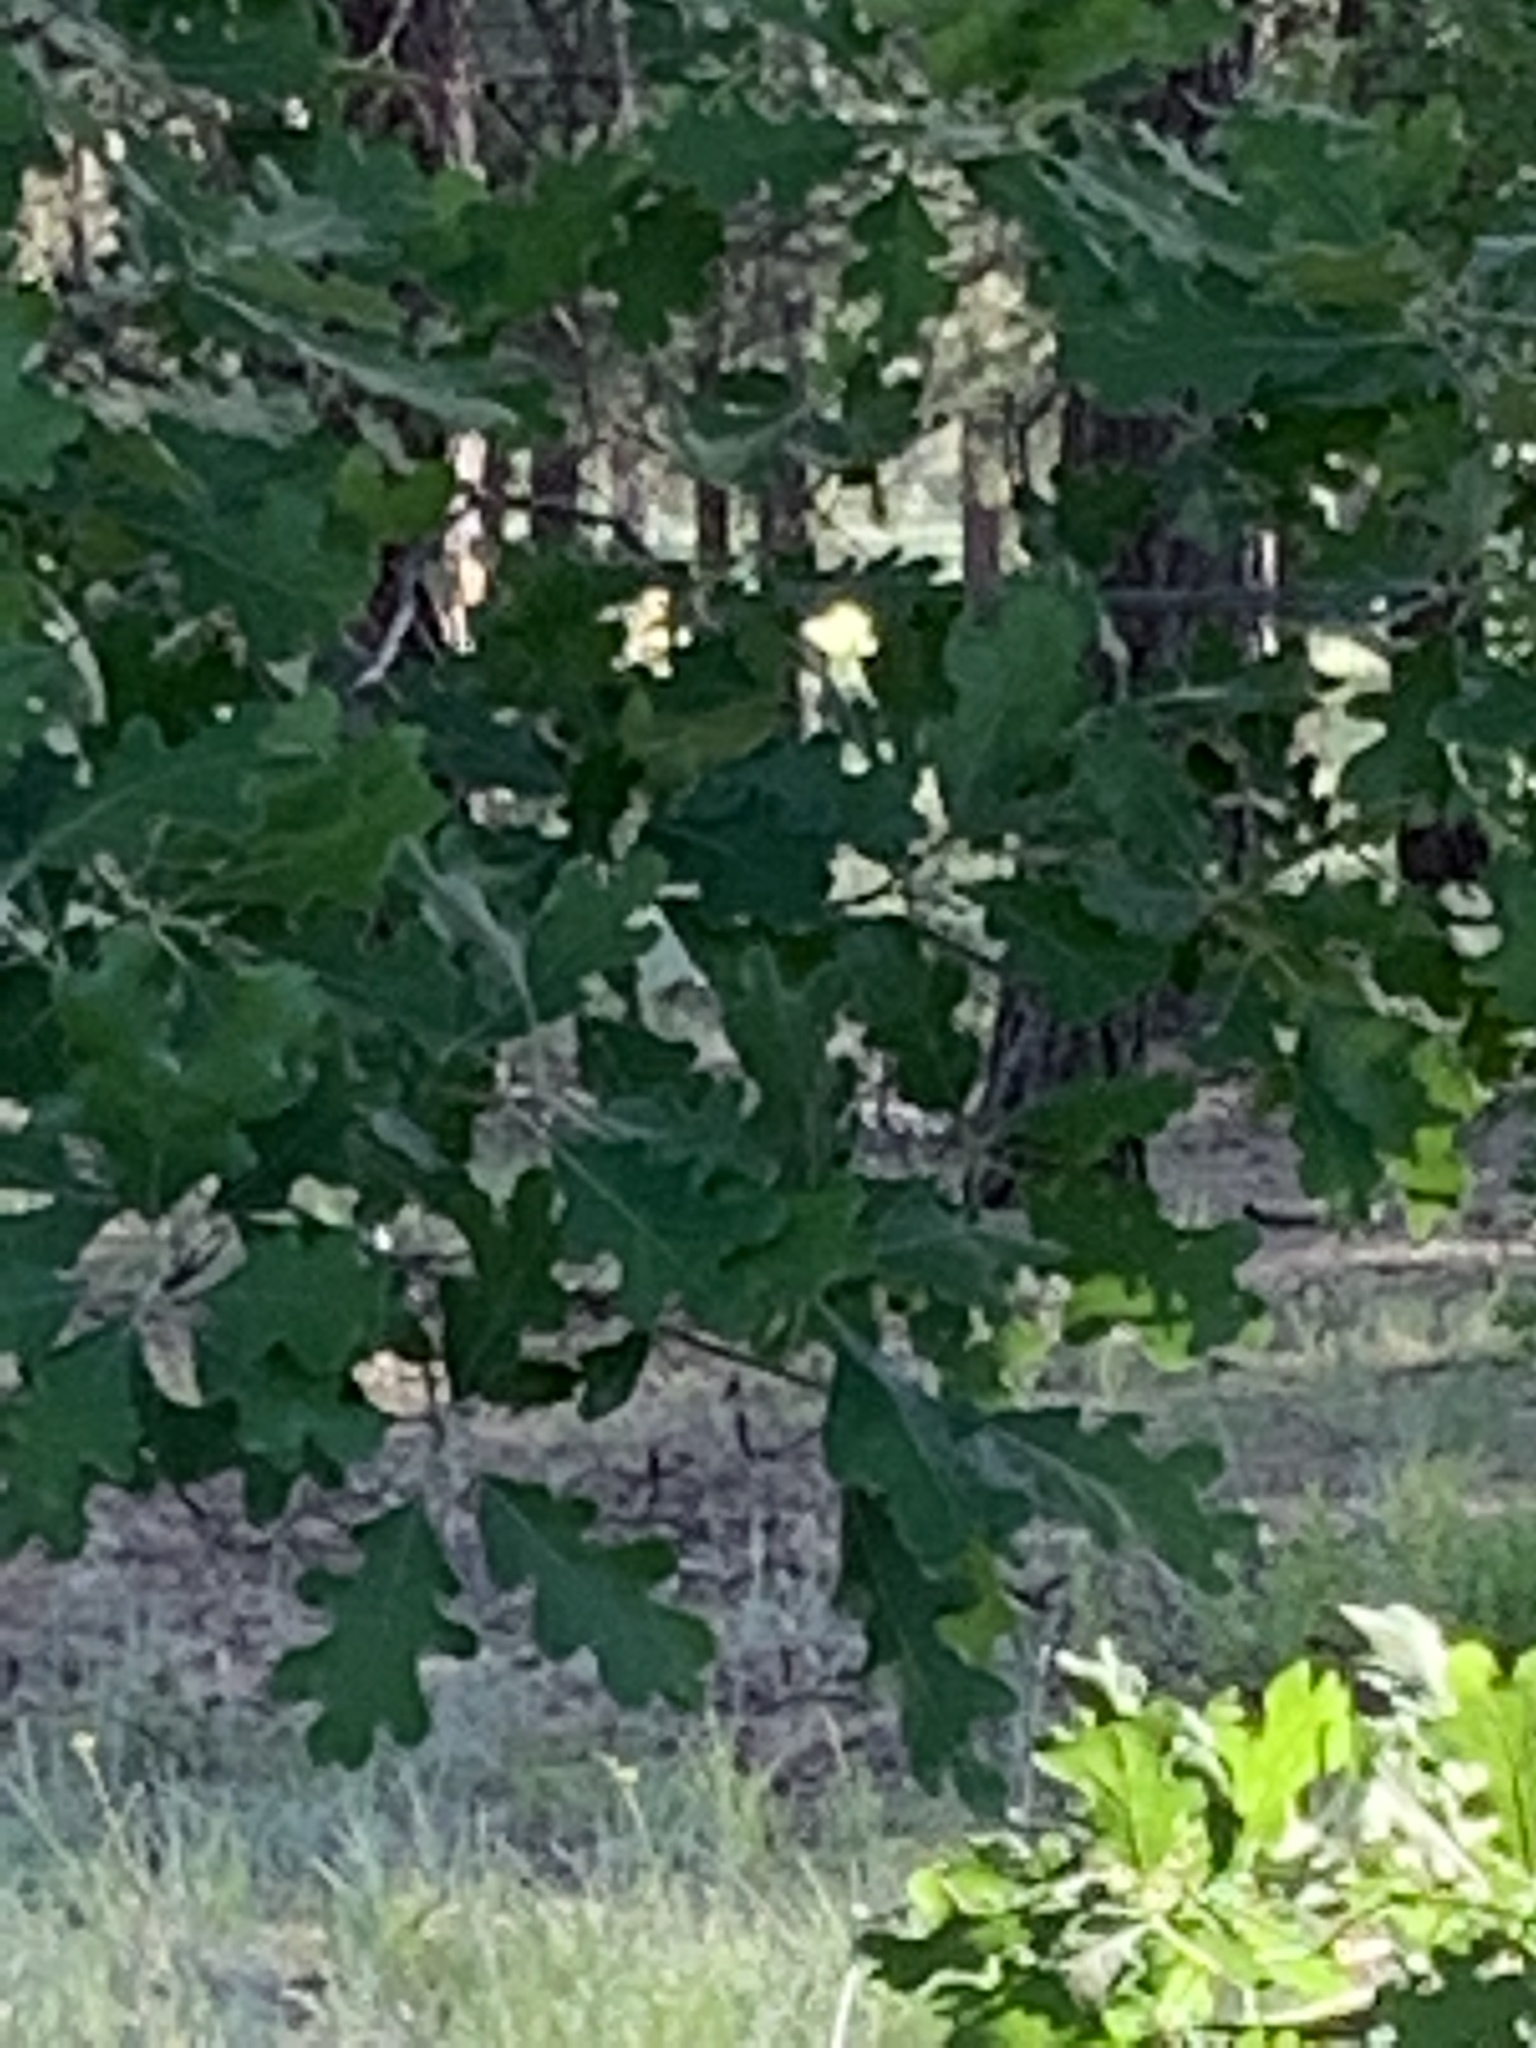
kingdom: Plantae
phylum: Tracheophyta
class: Magnoliopsida
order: Fagales
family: Fagaceae
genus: Quercus
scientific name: Quercus gambelii
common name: Gambel oak
